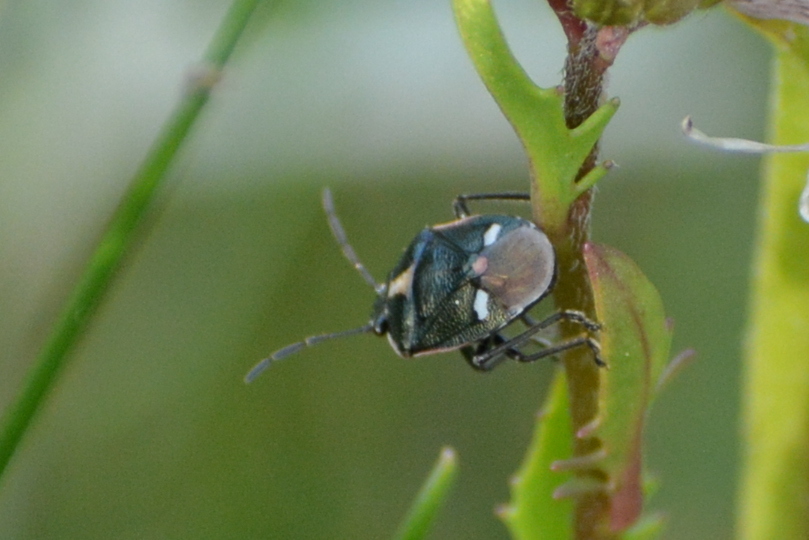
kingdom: Animalia
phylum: Arthropoda
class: Insecta
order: Hemiptera
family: Pentatomidae
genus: Eurydema
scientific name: Eurydema oleracea
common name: Cabbage bug
